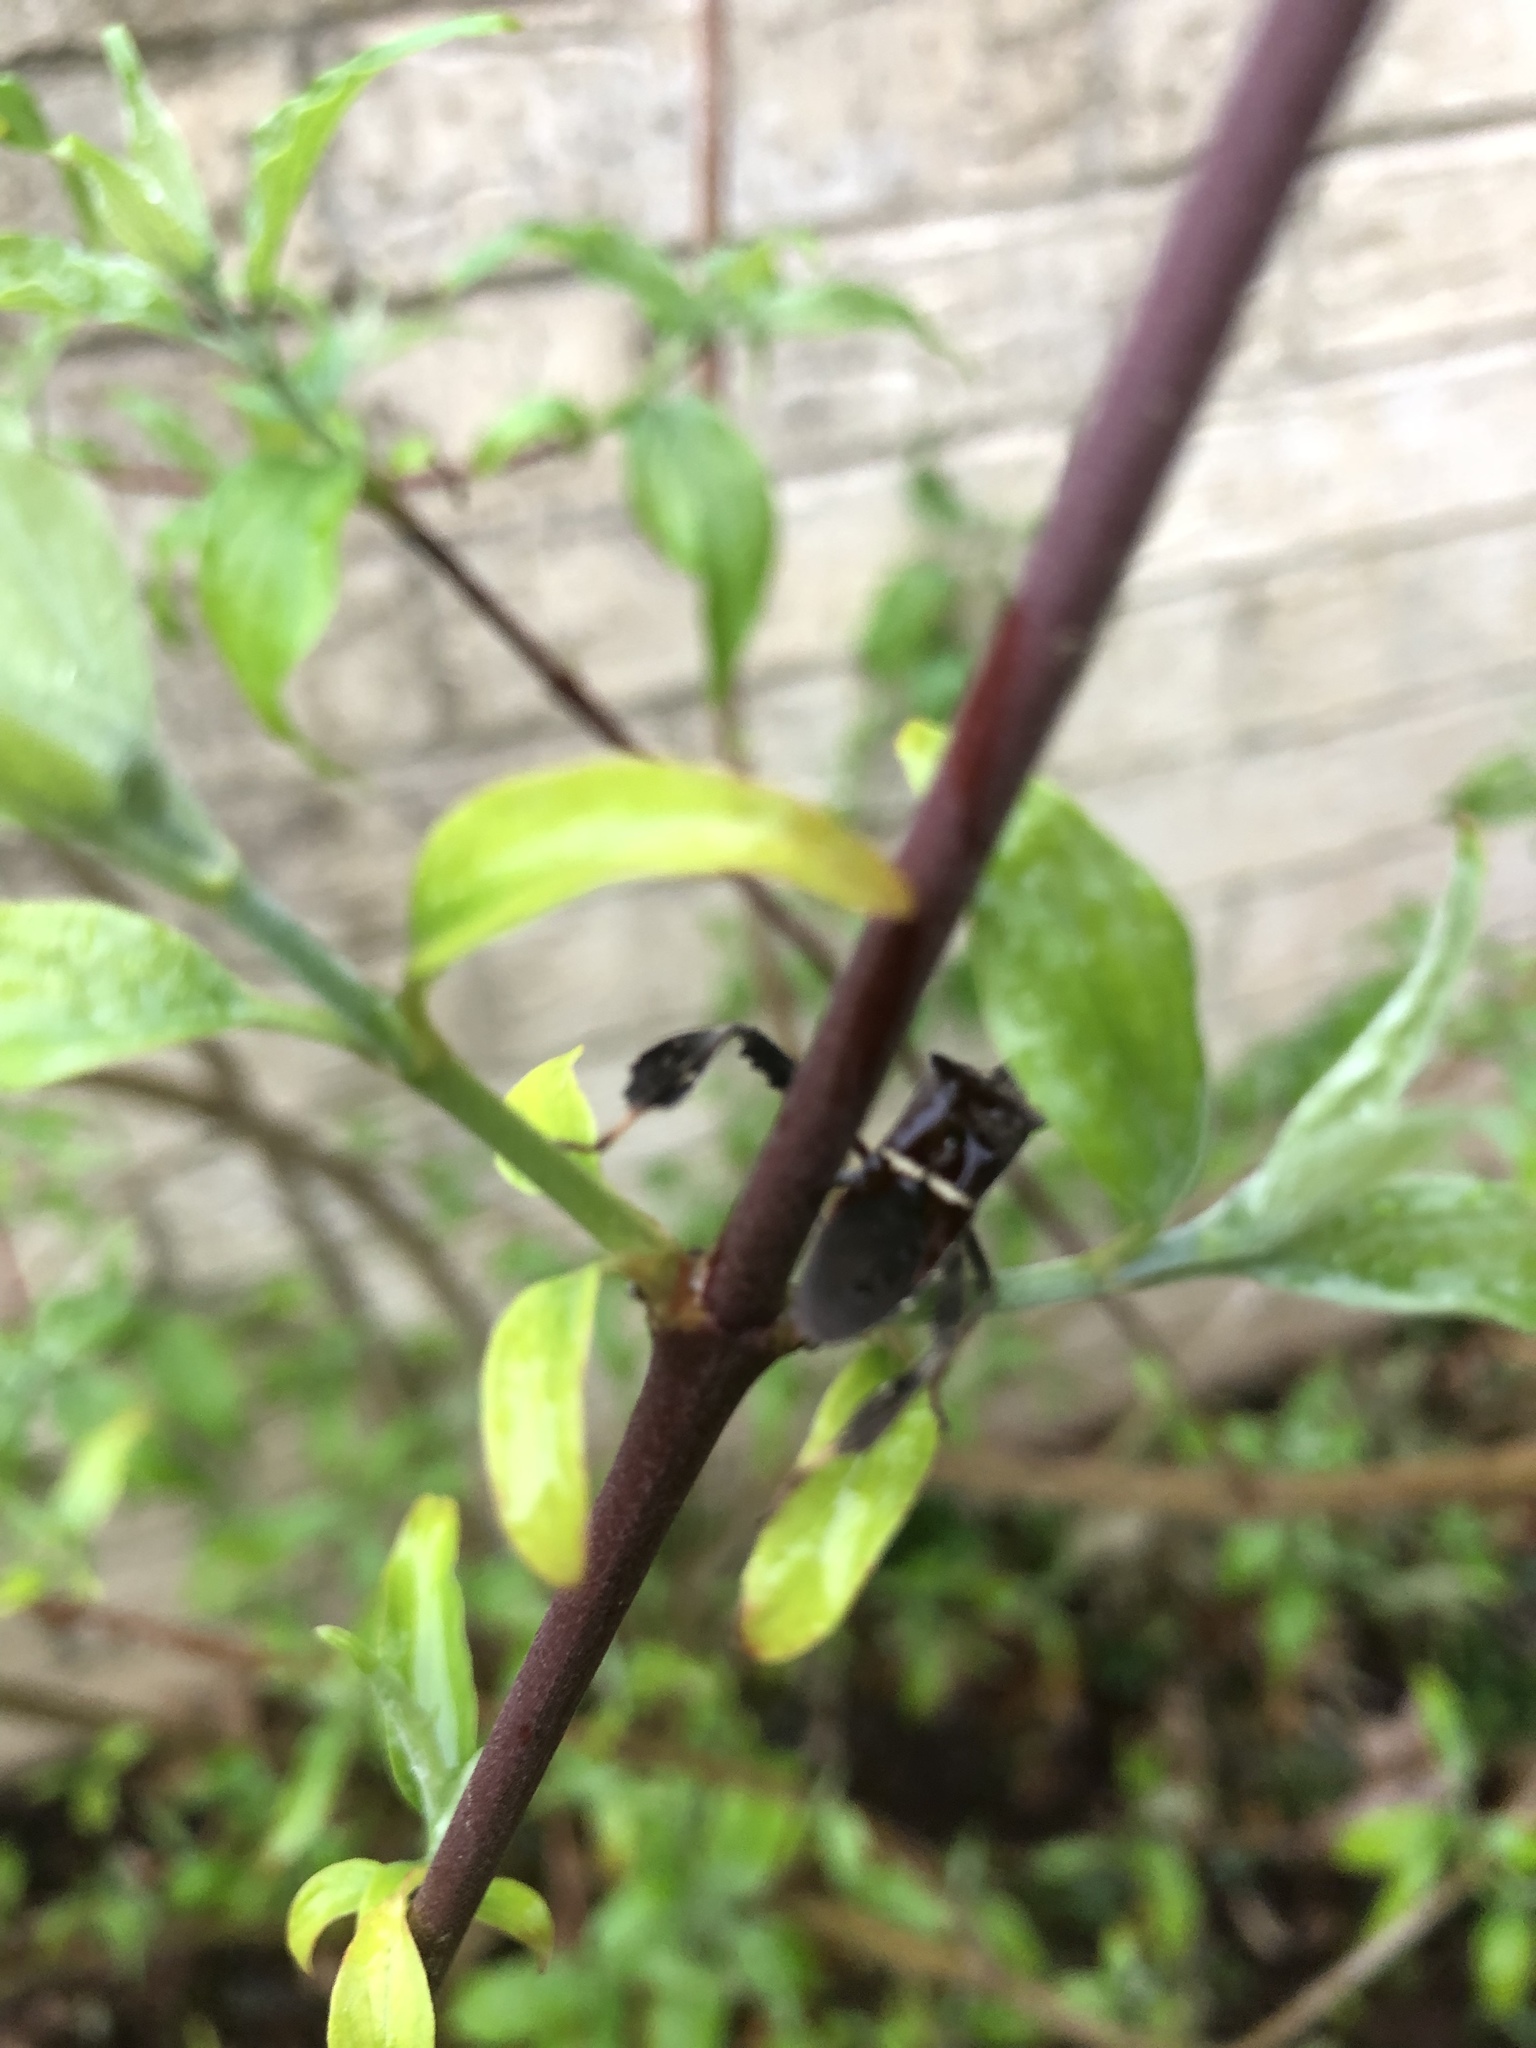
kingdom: Animalia
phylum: Arthropoda
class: Insecta
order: Hemiptera
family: Coreidae
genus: Leptoglossus
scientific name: Leptoglossus phyllopus
